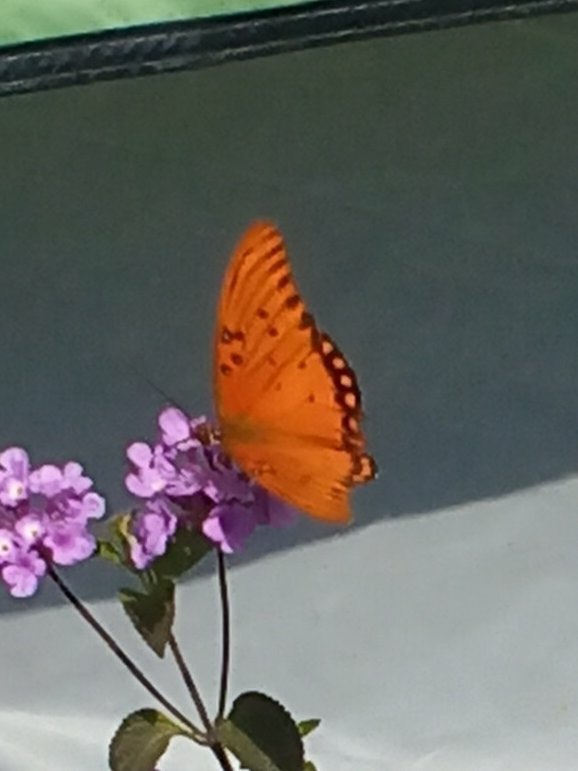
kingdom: Animalia
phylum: Arthropoda
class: Insecta
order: Lepidoptera
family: Nymphalidae
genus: Dione
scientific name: Dione vanillae
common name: Gulf fritillary
